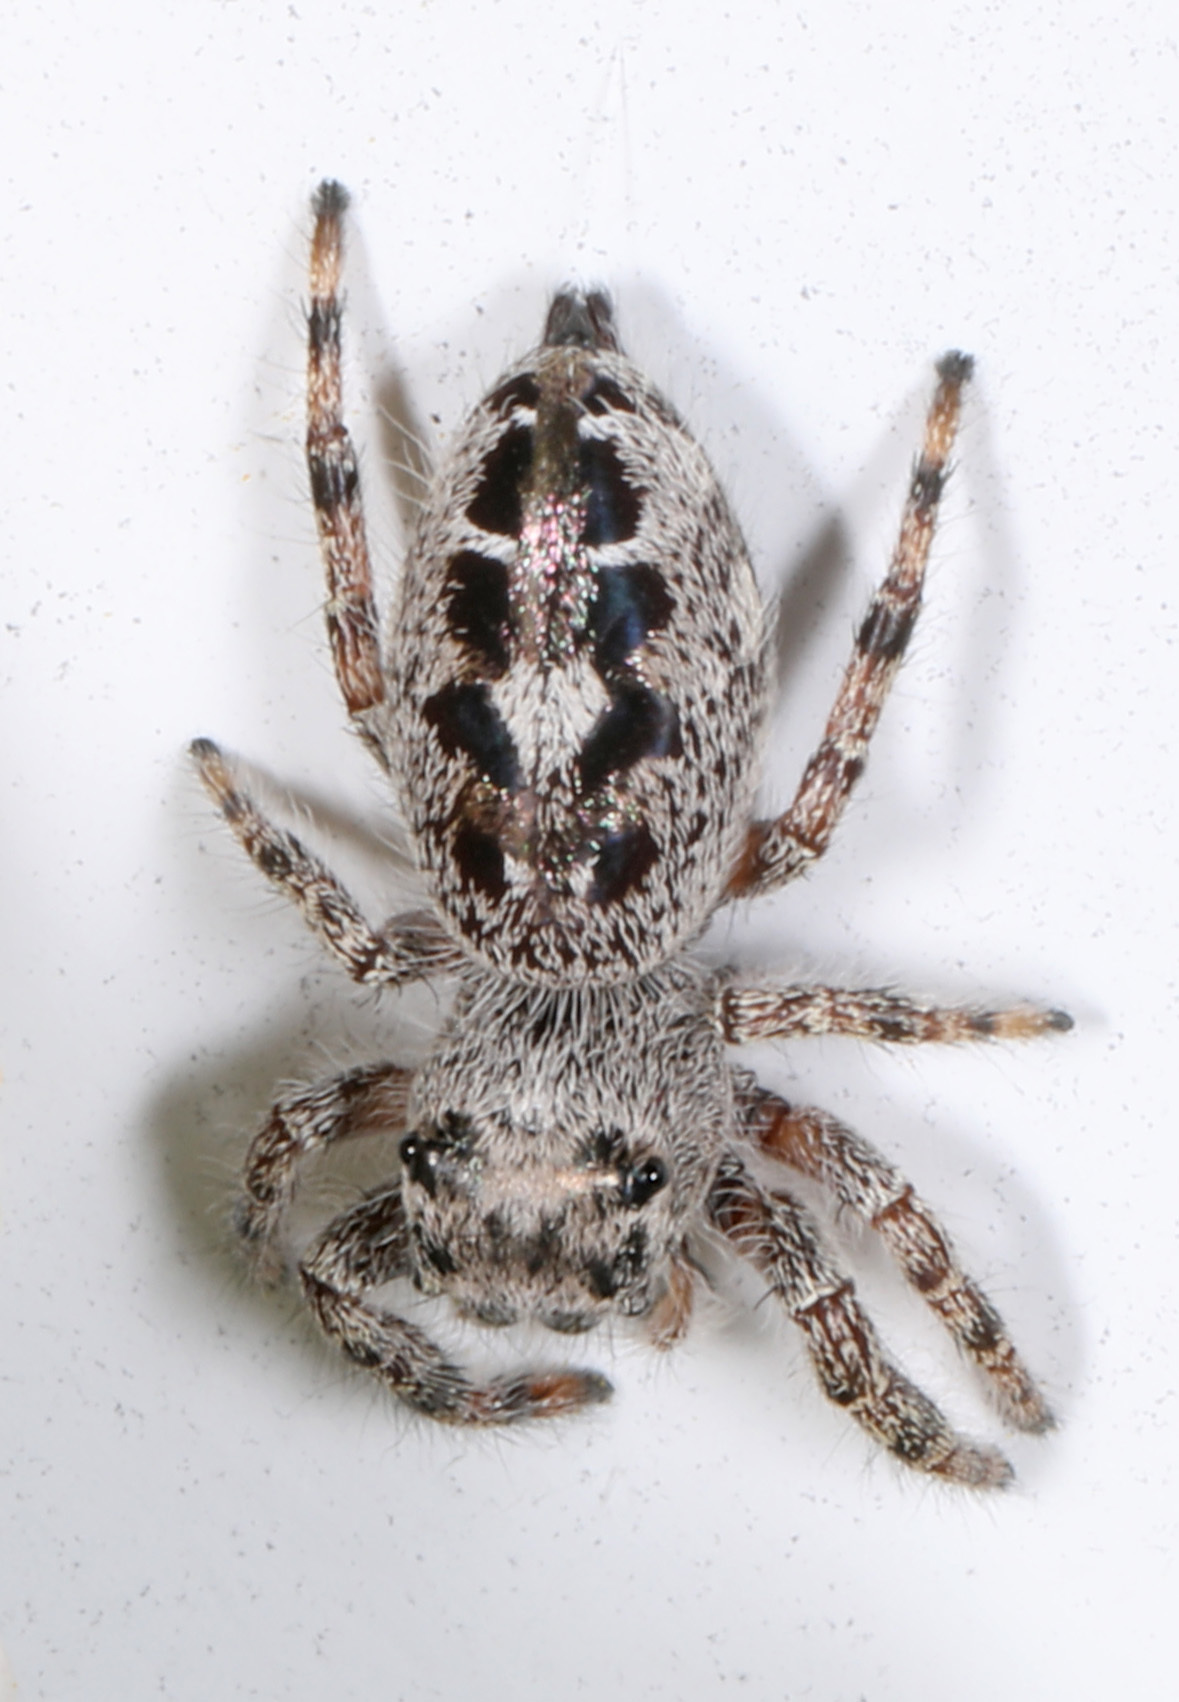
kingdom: Animalia
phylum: Arthropoda
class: Arachnida
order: Araneae
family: Salticidae
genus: Phidippus
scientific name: Phidippus putnami
